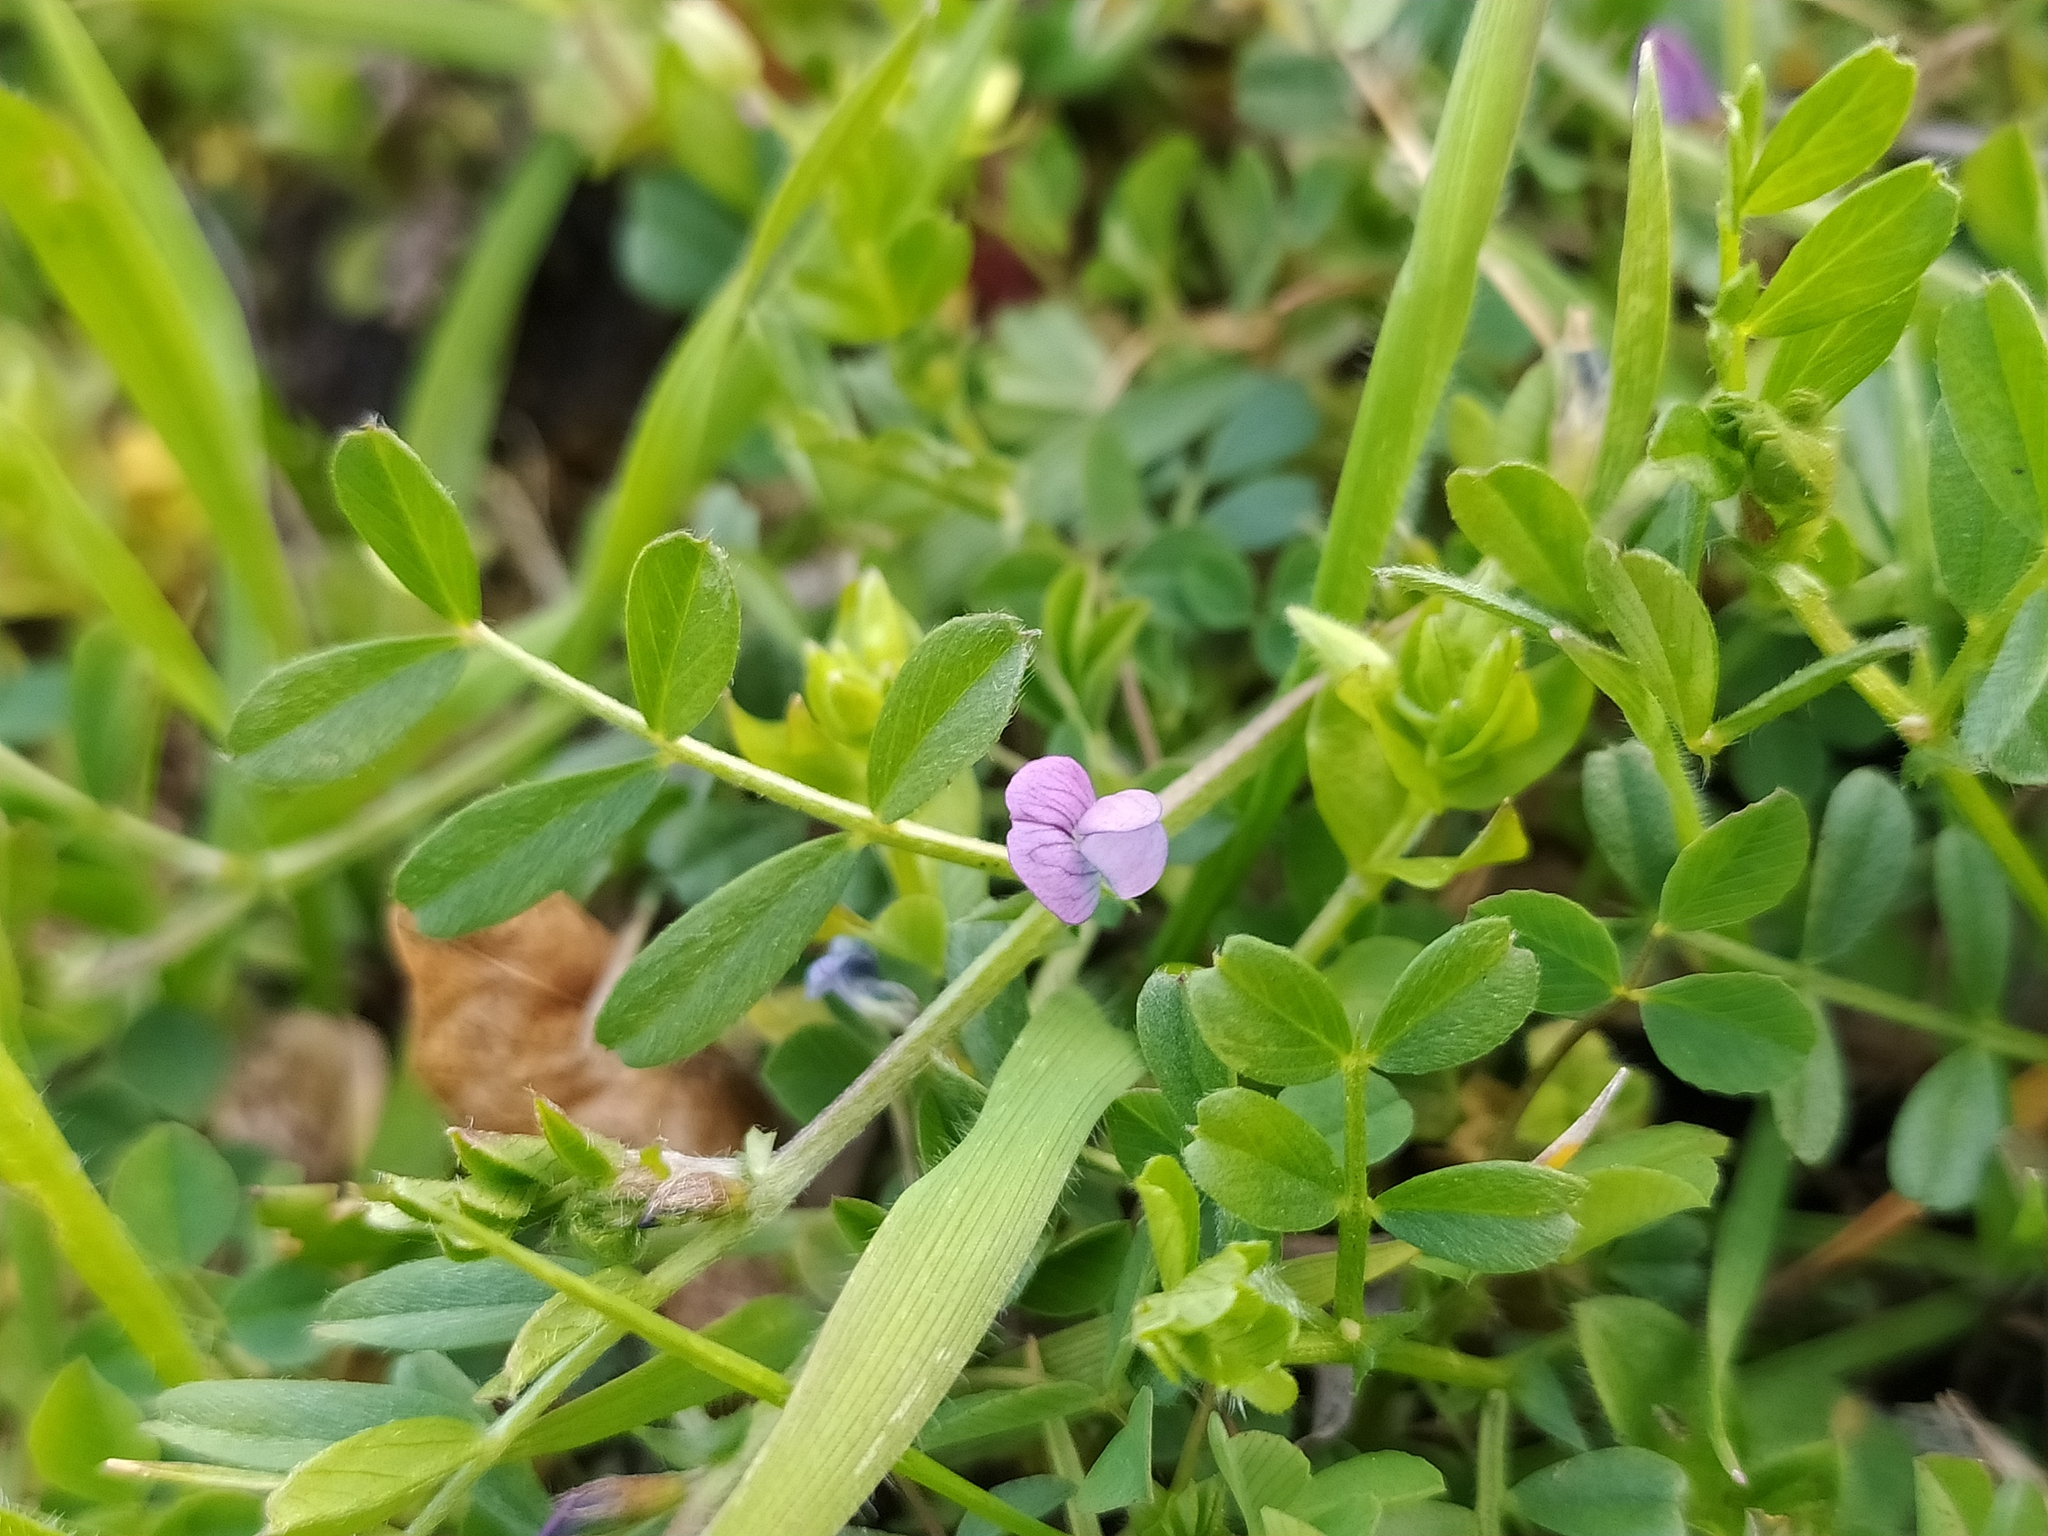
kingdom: Plantae
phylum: Tracheophyta
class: Magnoliopsida
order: Fabales
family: Fabaceae
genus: Vicia
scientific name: Vicia lathyroides
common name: Spring vetch
